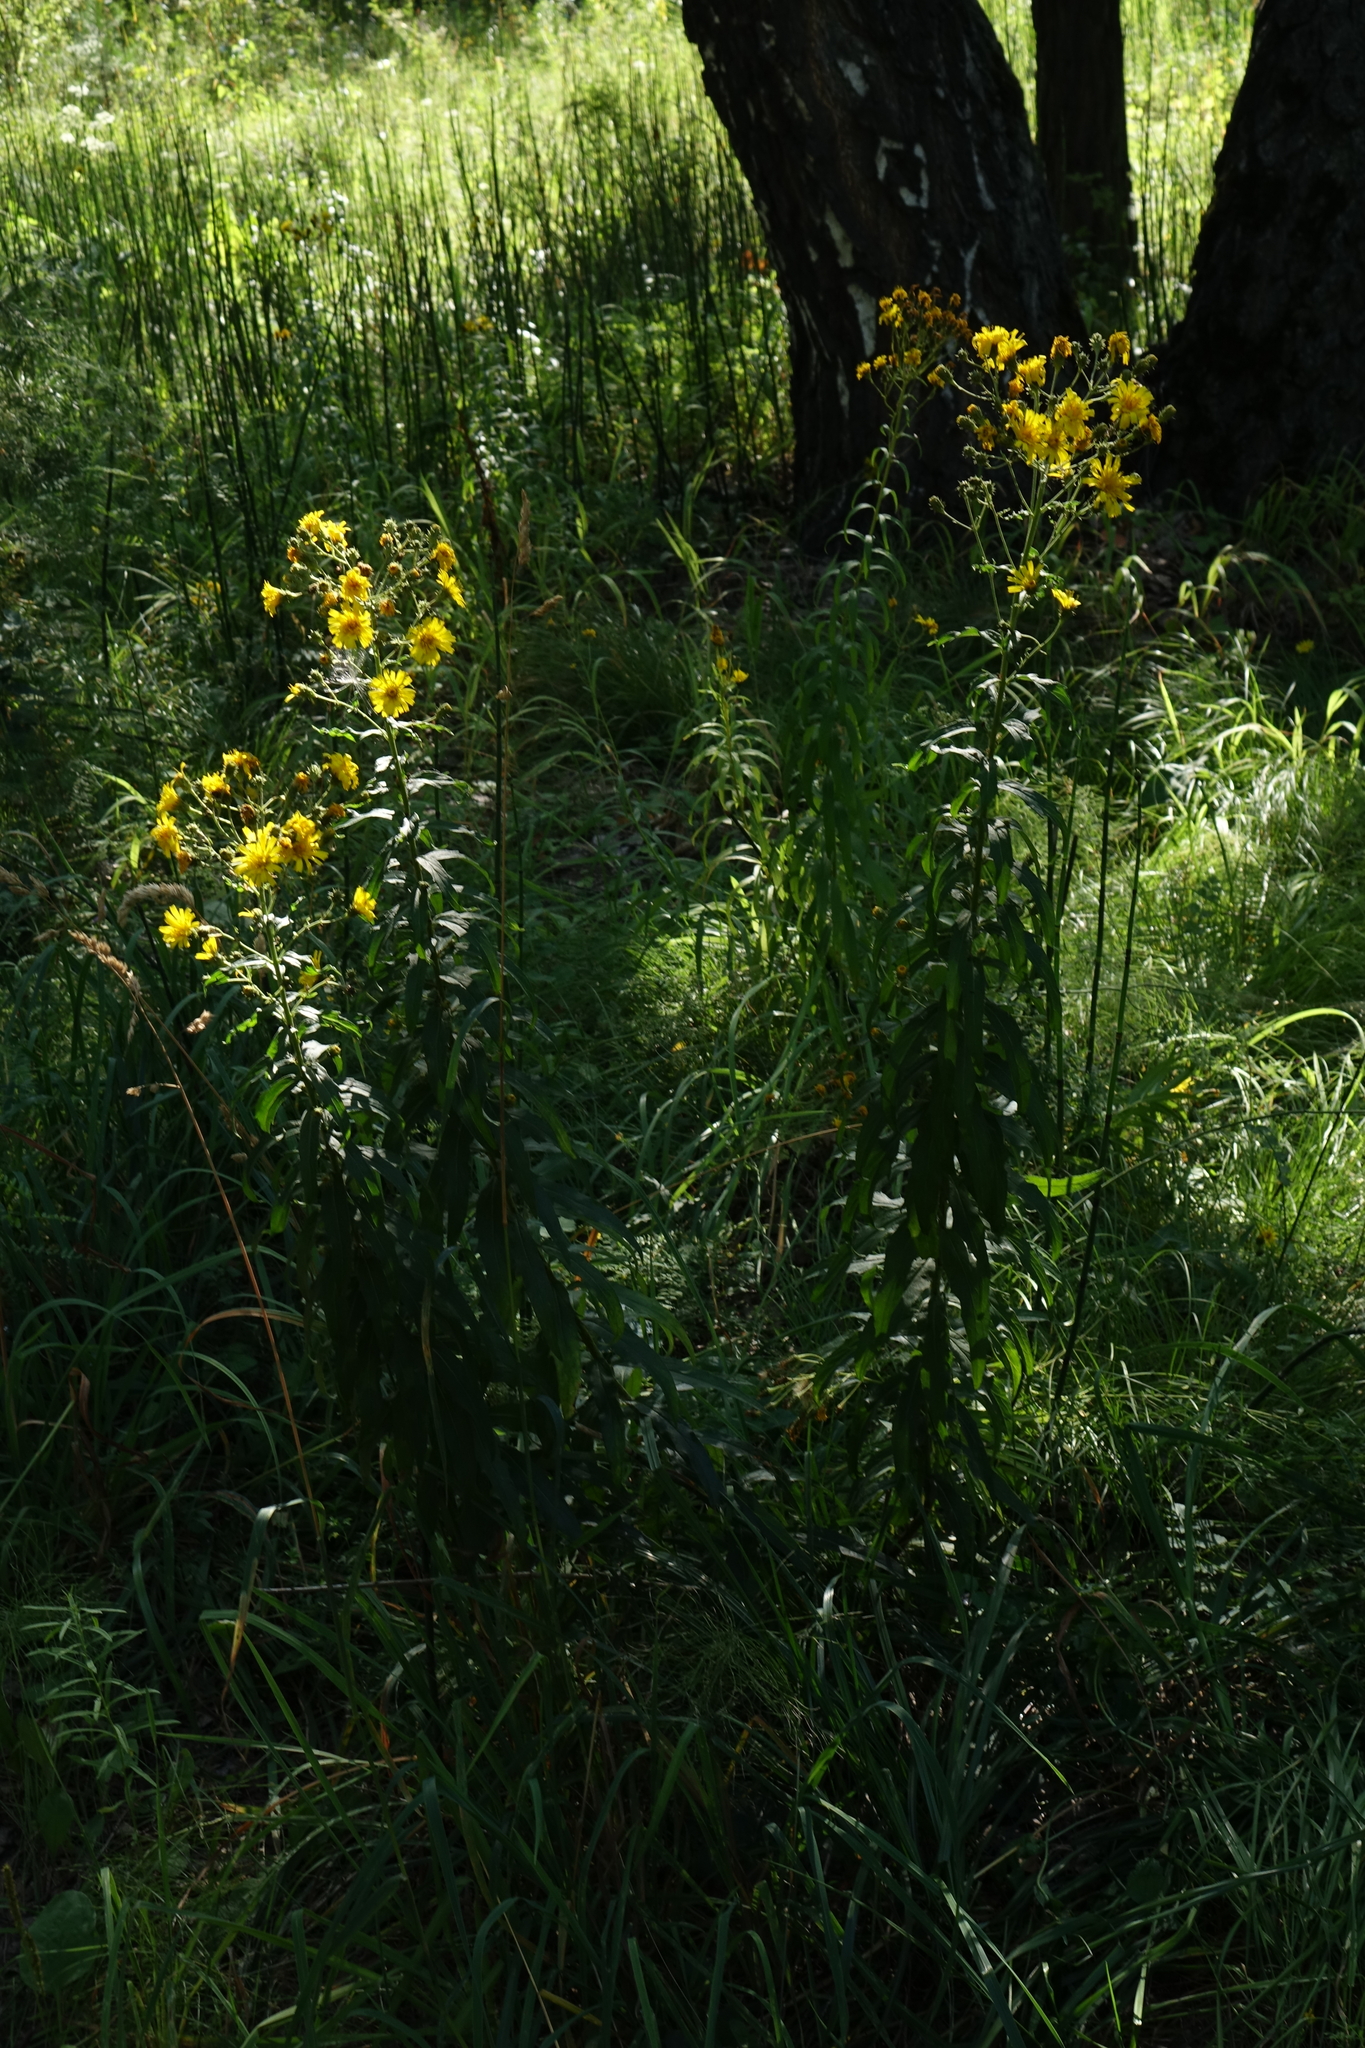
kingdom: Plantae
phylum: Tracheophyta
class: Magnoliopsida
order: Asterales
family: Asteraceae
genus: Hieracium
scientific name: Hieracium umbellatum
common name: Northern hawkweed
